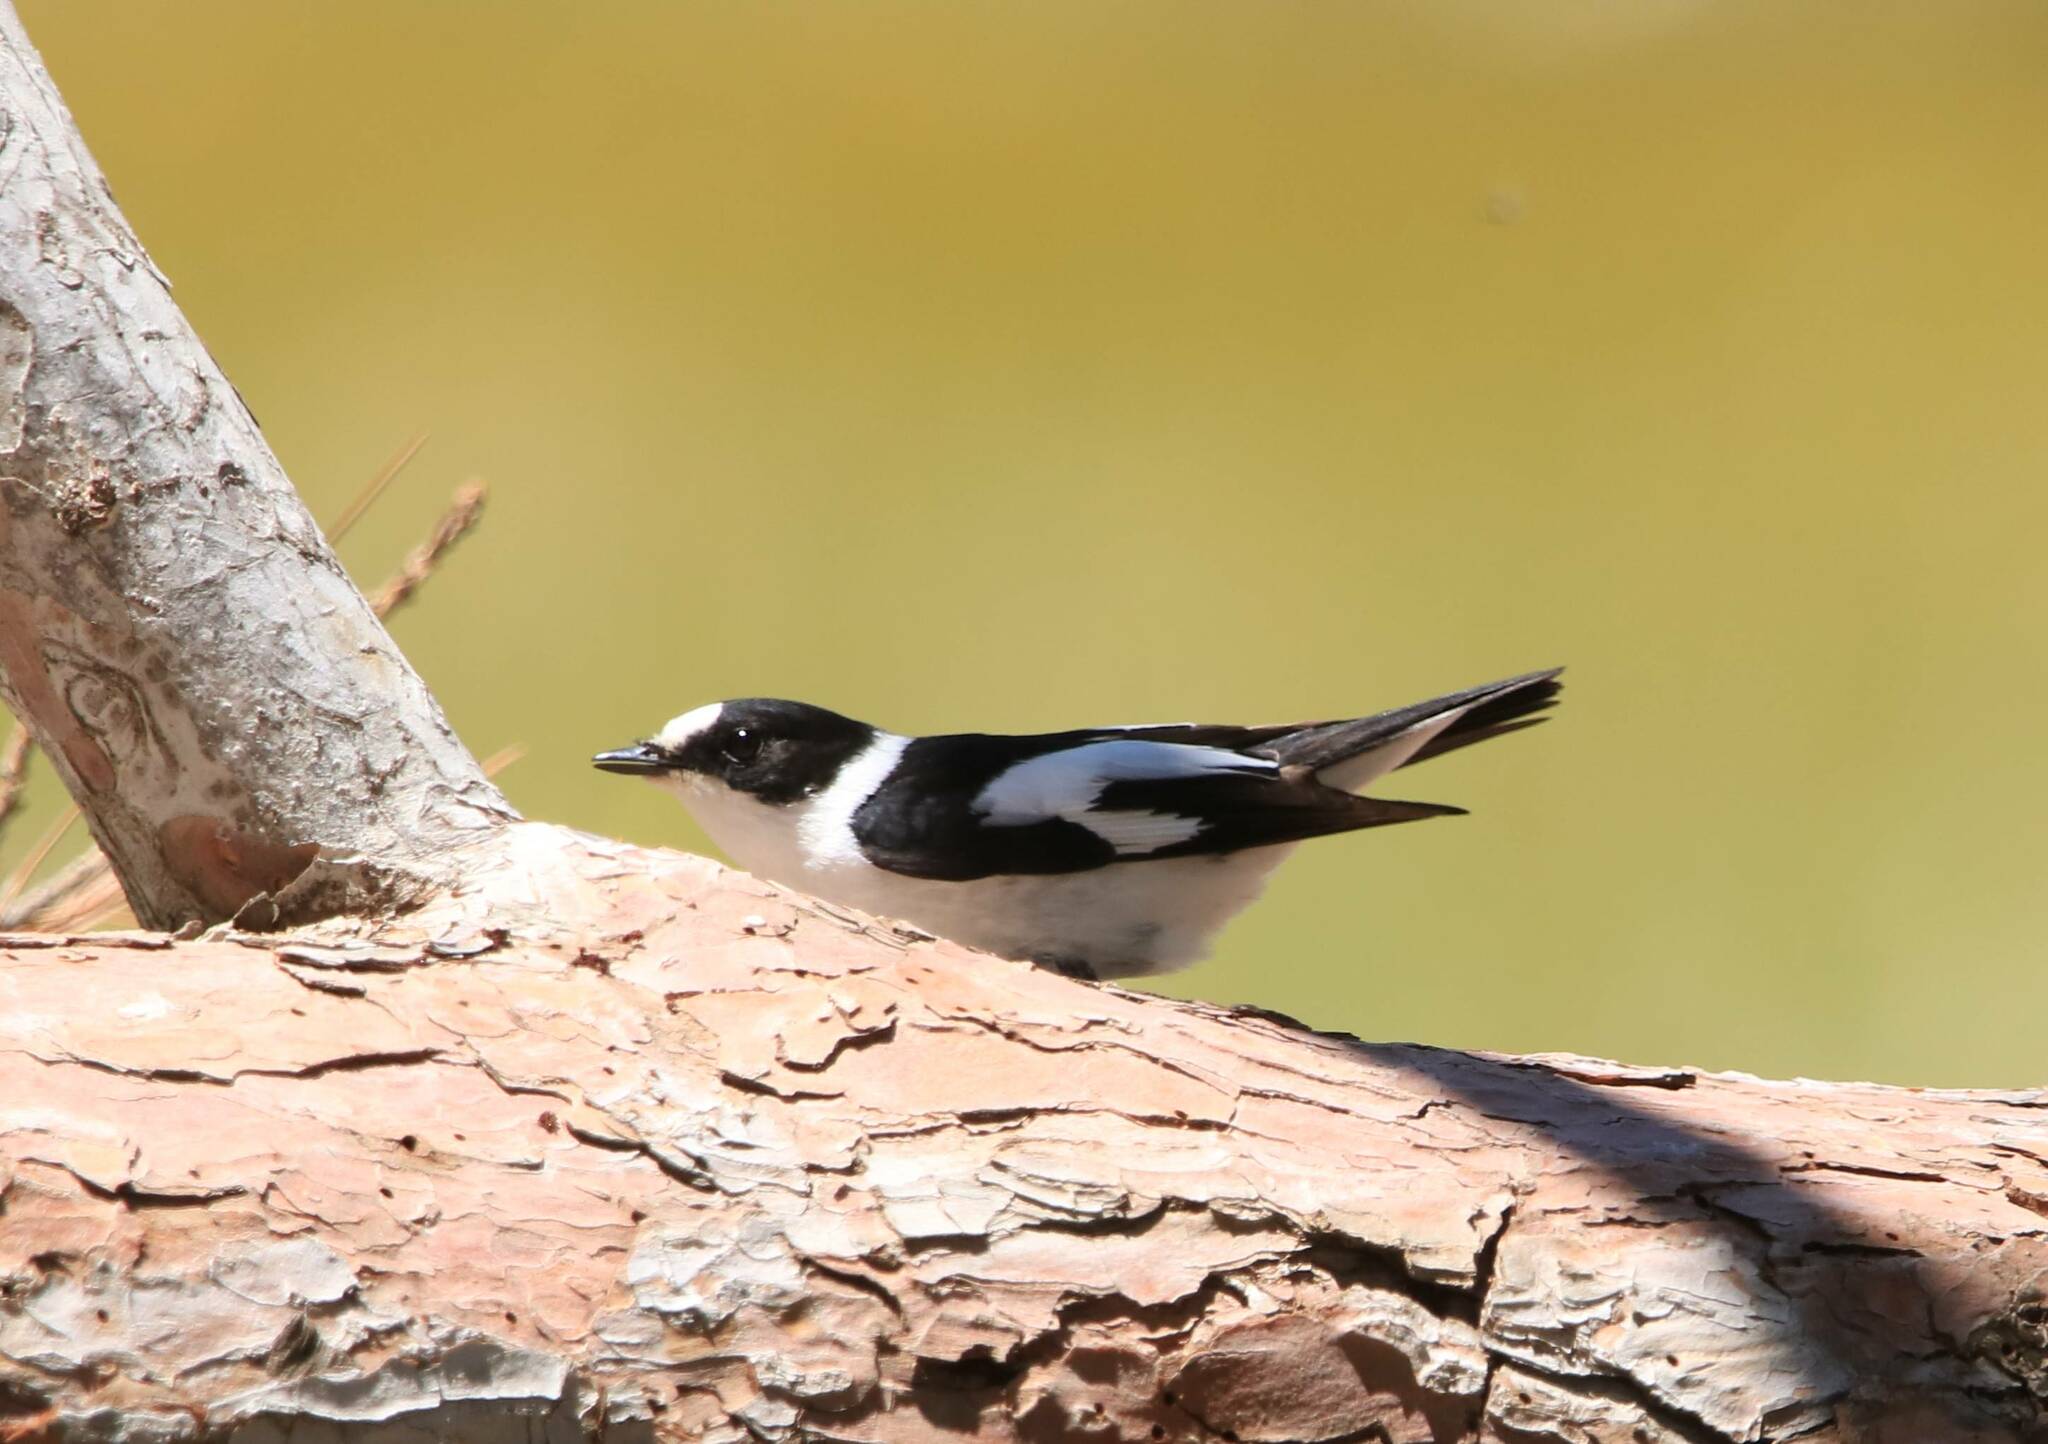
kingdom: Animalia
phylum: Chordata
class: Aves
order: Passeriformes
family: Muscicapidae
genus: Ficedula
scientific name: Ficedula albicollis
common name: Collared flycatcher
